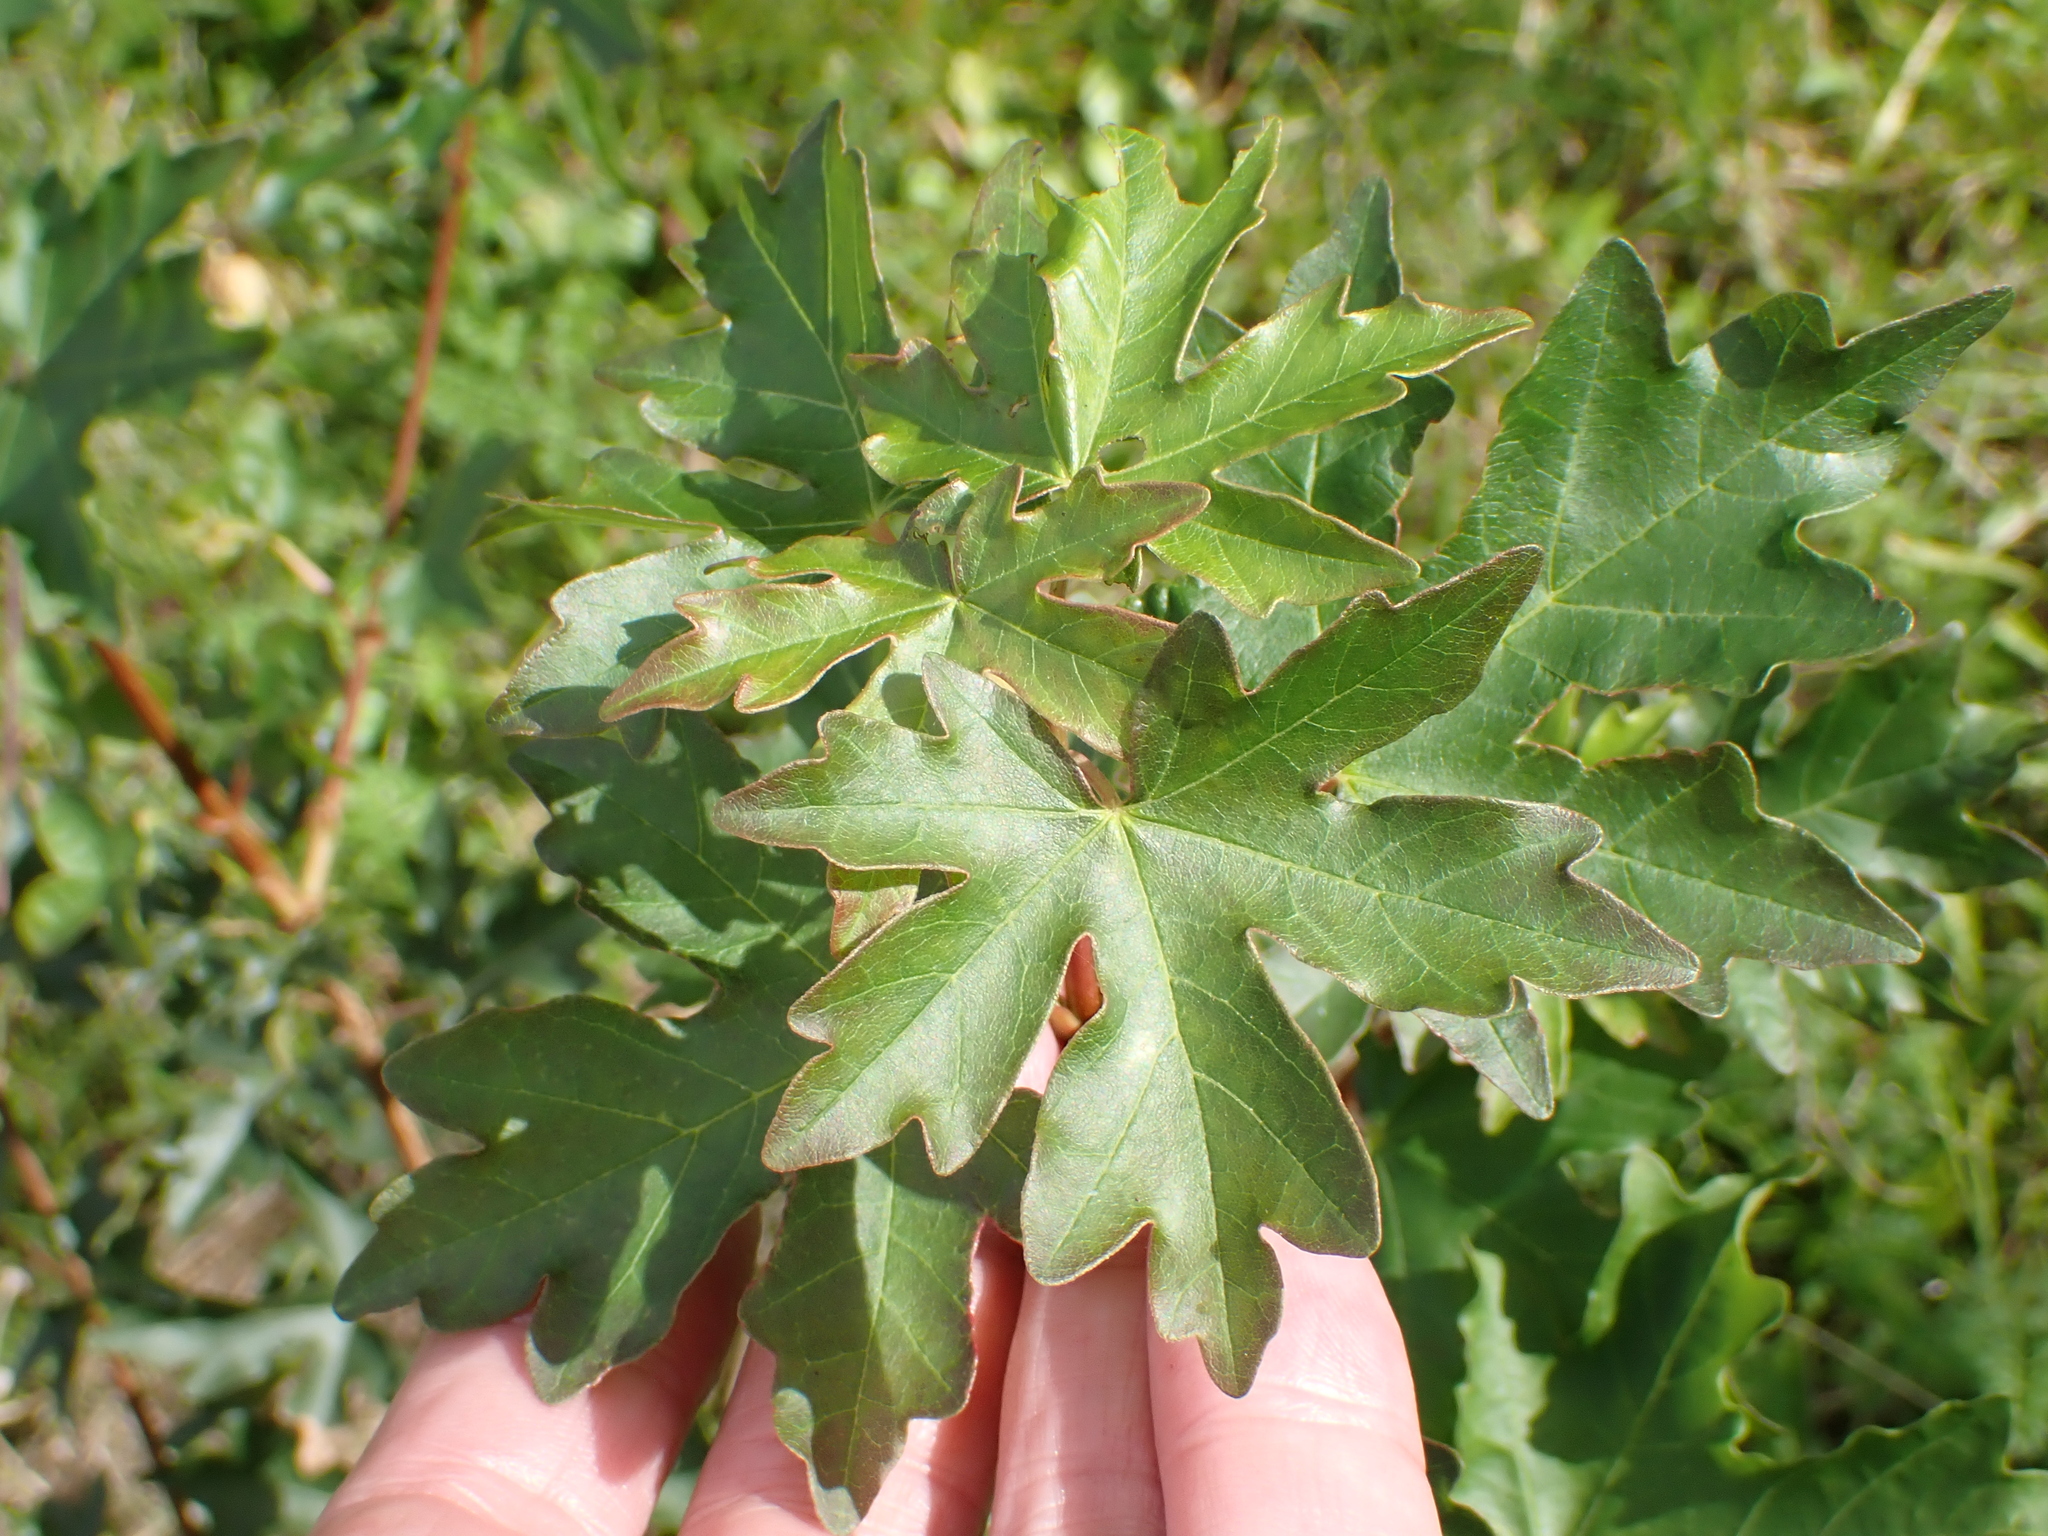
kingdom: Plantae
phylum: Tracheophyta
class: Magnoliopsida
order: Sapindales
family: Sapindaceae
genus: Acer
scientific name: Acer campestre
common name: Field maple
